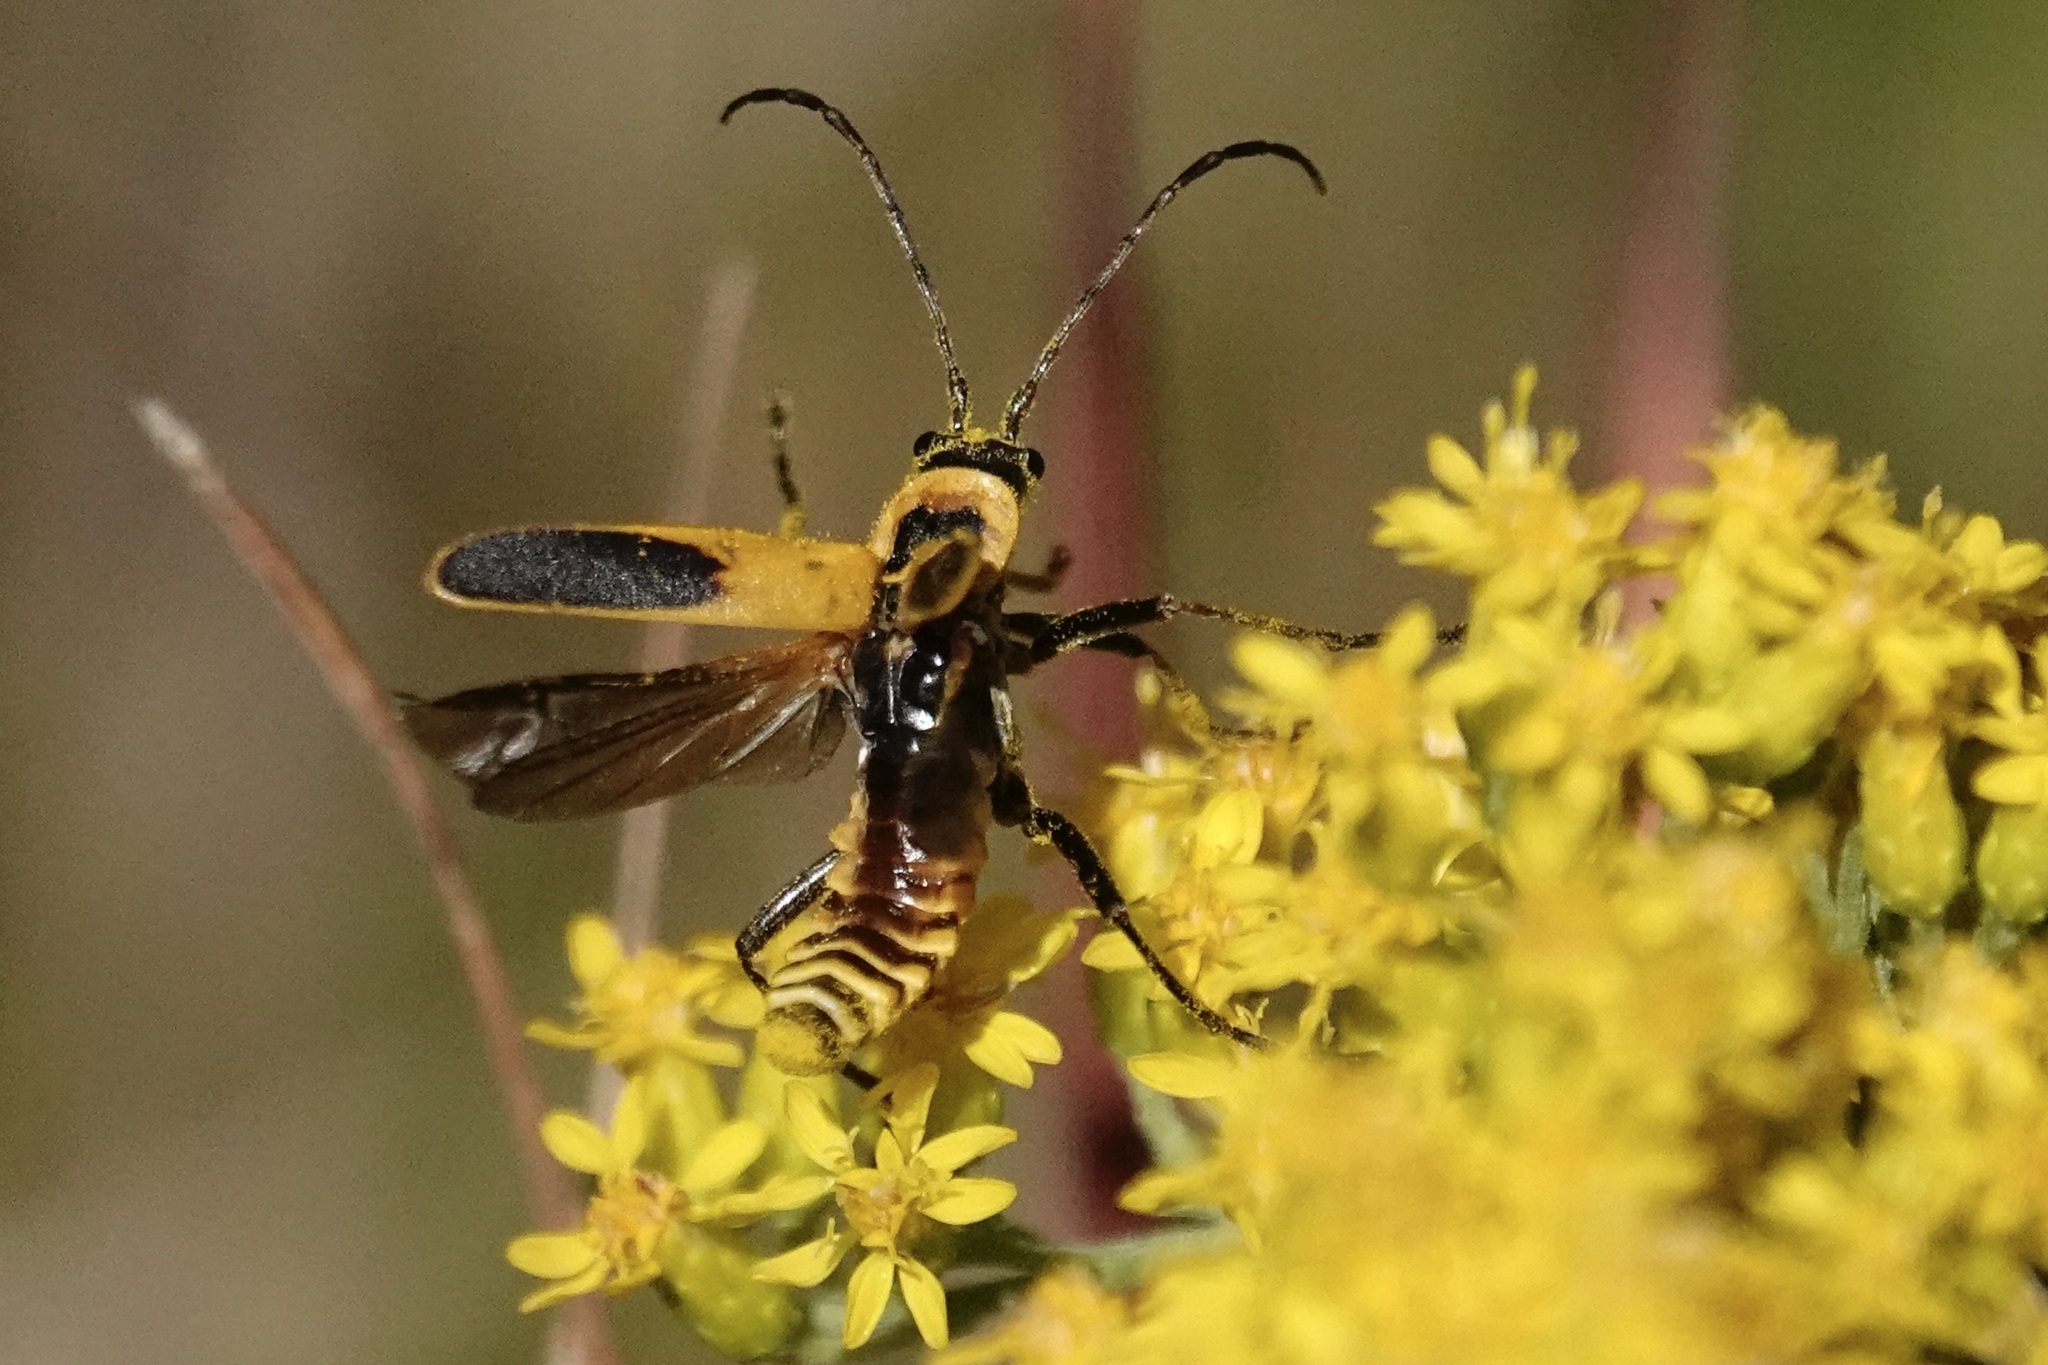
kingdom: Animalia
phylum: Arthropoda
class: Insecta
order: Coleoptera
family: Cantharidae
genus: Chauliognathus
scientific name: Chauliognathus pensylvanicus
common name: Goldenrod soldier beetle
